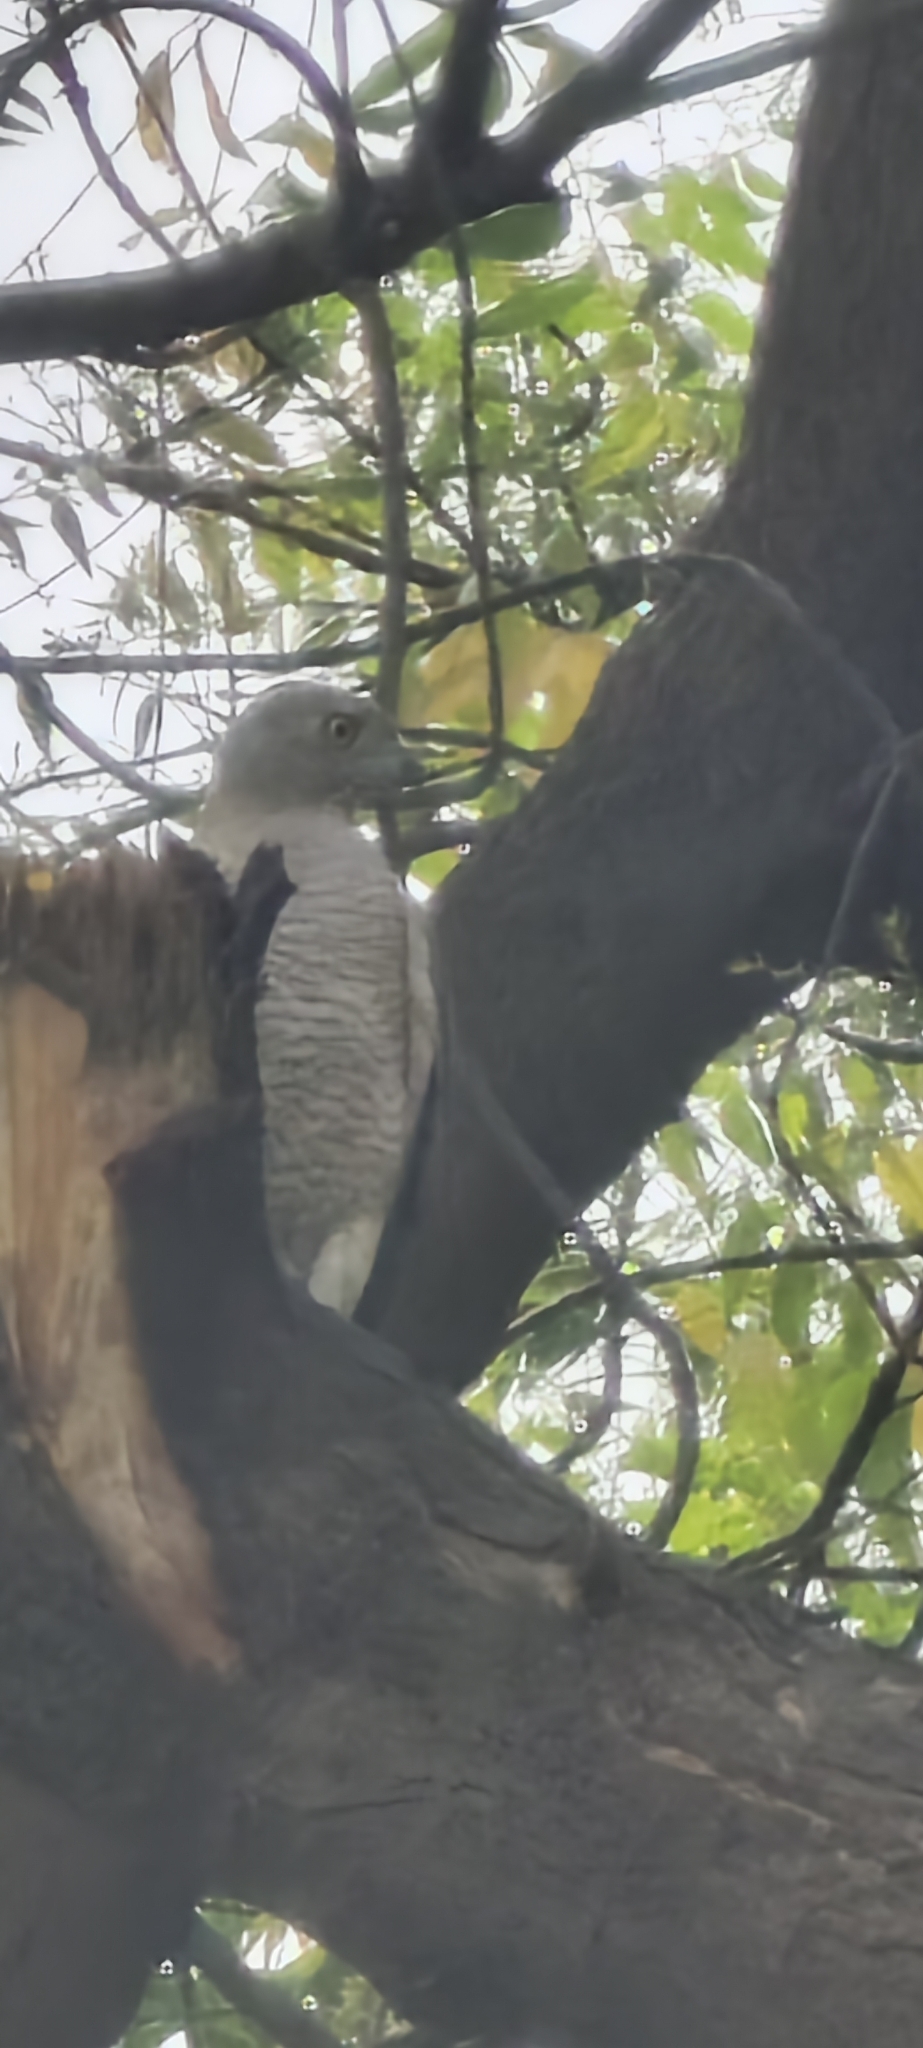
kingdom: Animalia
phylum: Chordata
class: Aves
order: Accipitriformes
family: Accipitridae
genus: Accipiter
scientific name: Accipiter badius
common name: Shikra
